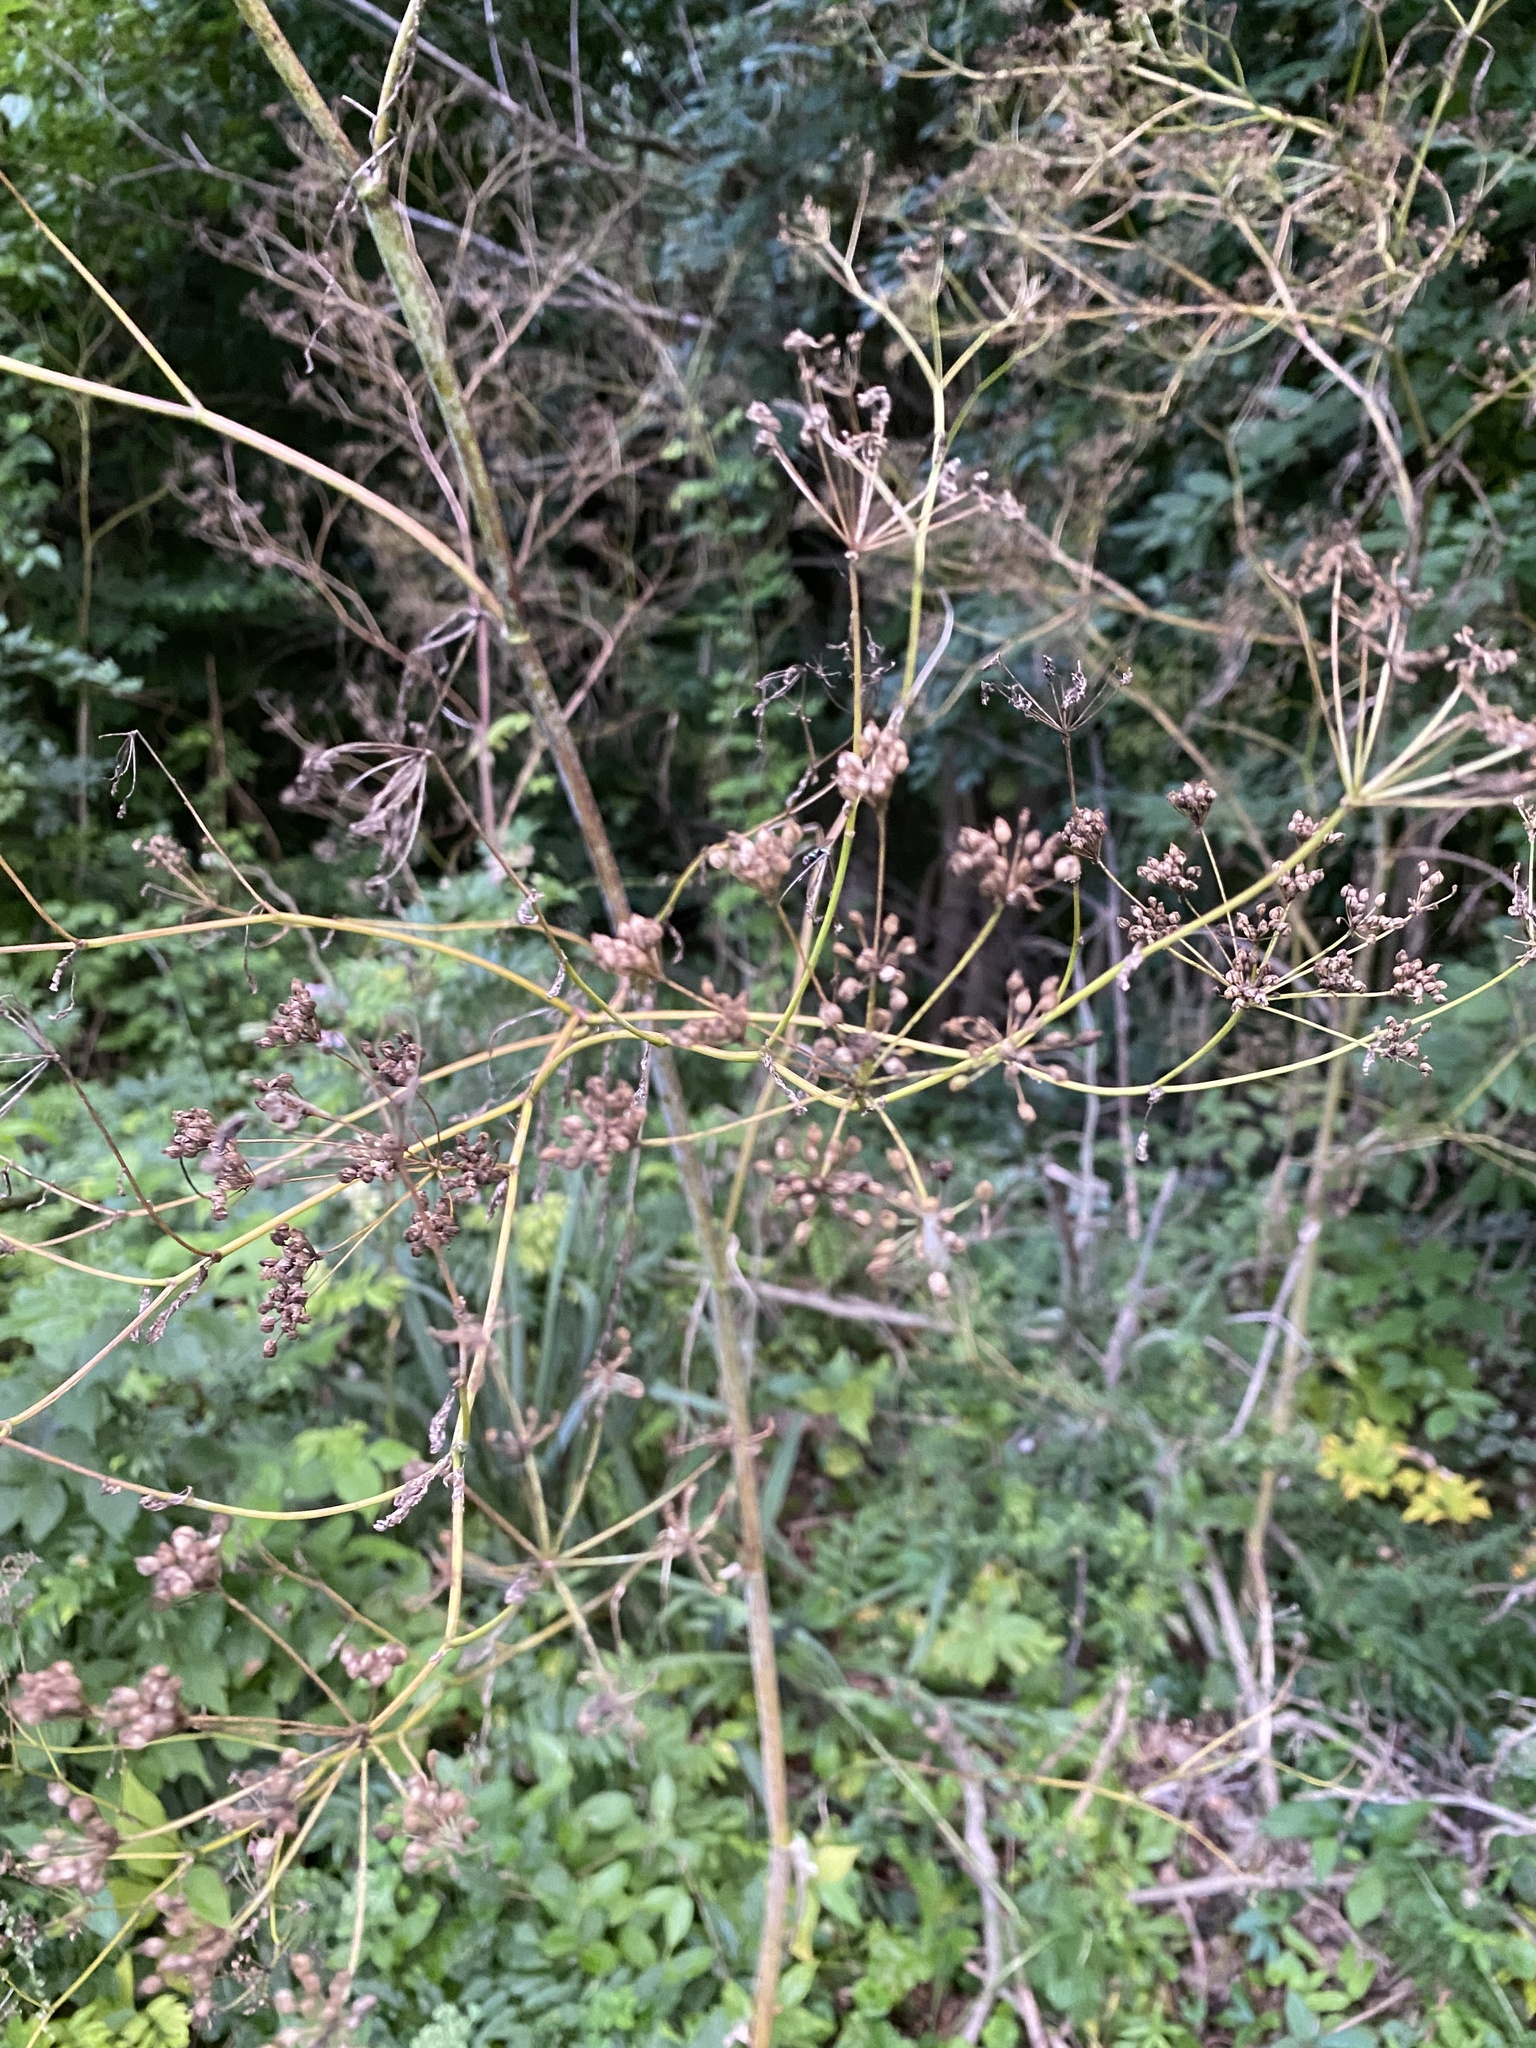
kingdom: Plantae
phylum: Tracheophyta
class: Magnoliopsida
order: Apiales
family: Apiaceae
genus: Conium
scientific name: Conium maculatum
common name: Hemlock
